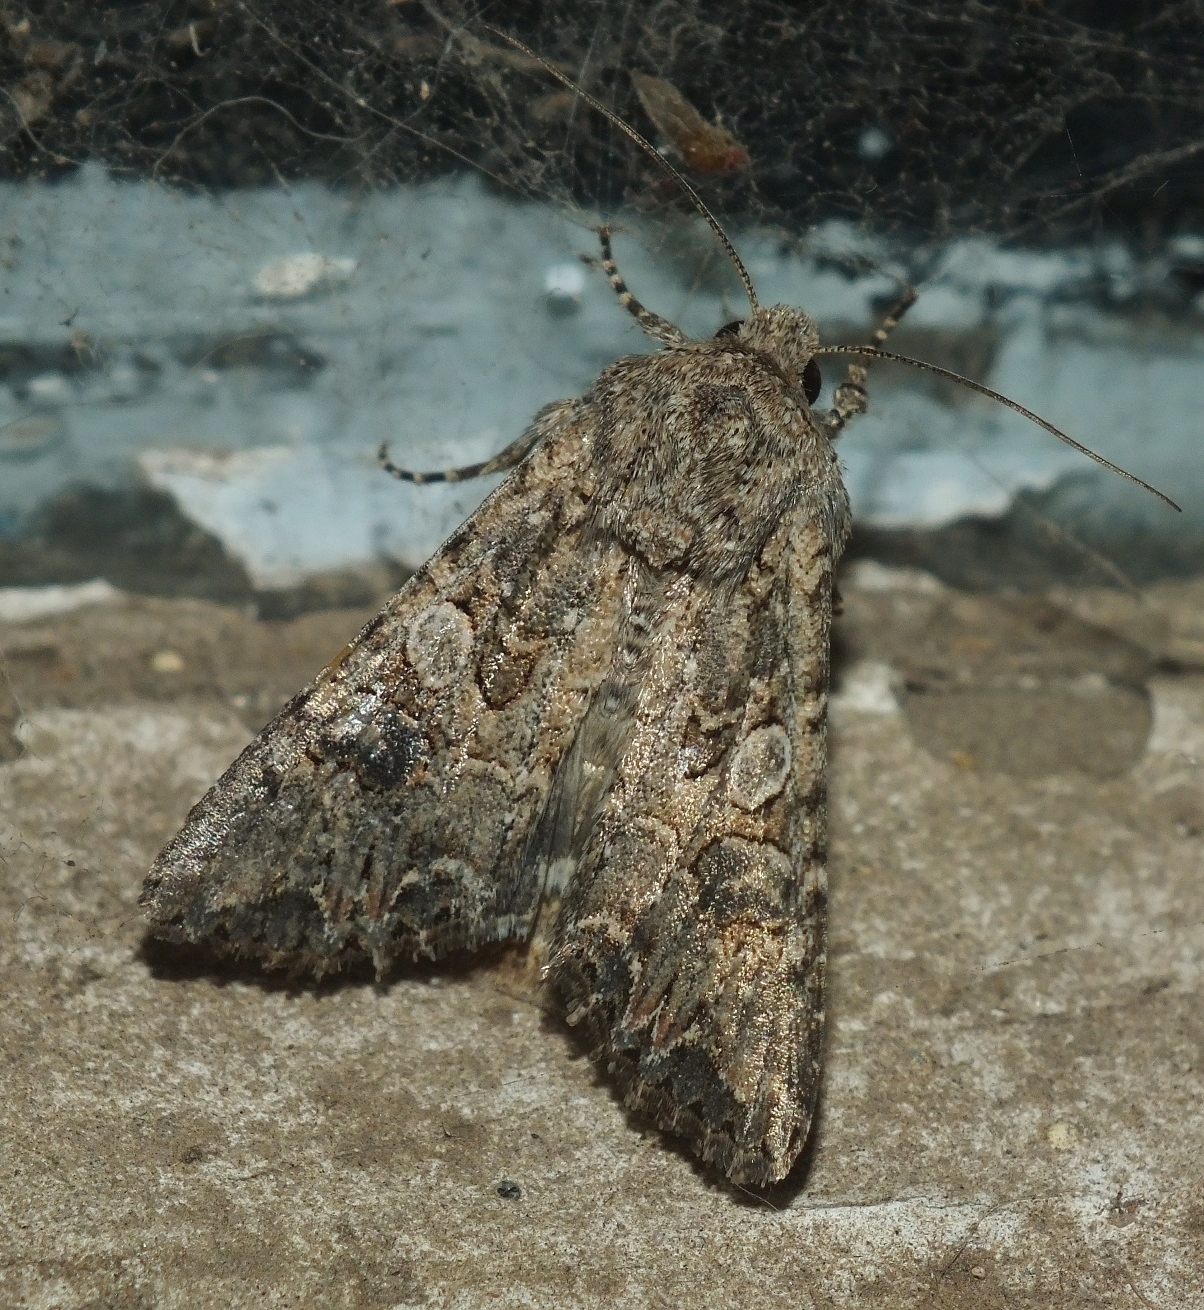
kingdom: Animalia
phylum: Arthropoda
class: Insecta
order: Lepidoptera
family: Noctuidae
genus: Anarta
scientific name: Anarta trifolii
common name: Clover cutworm moth
